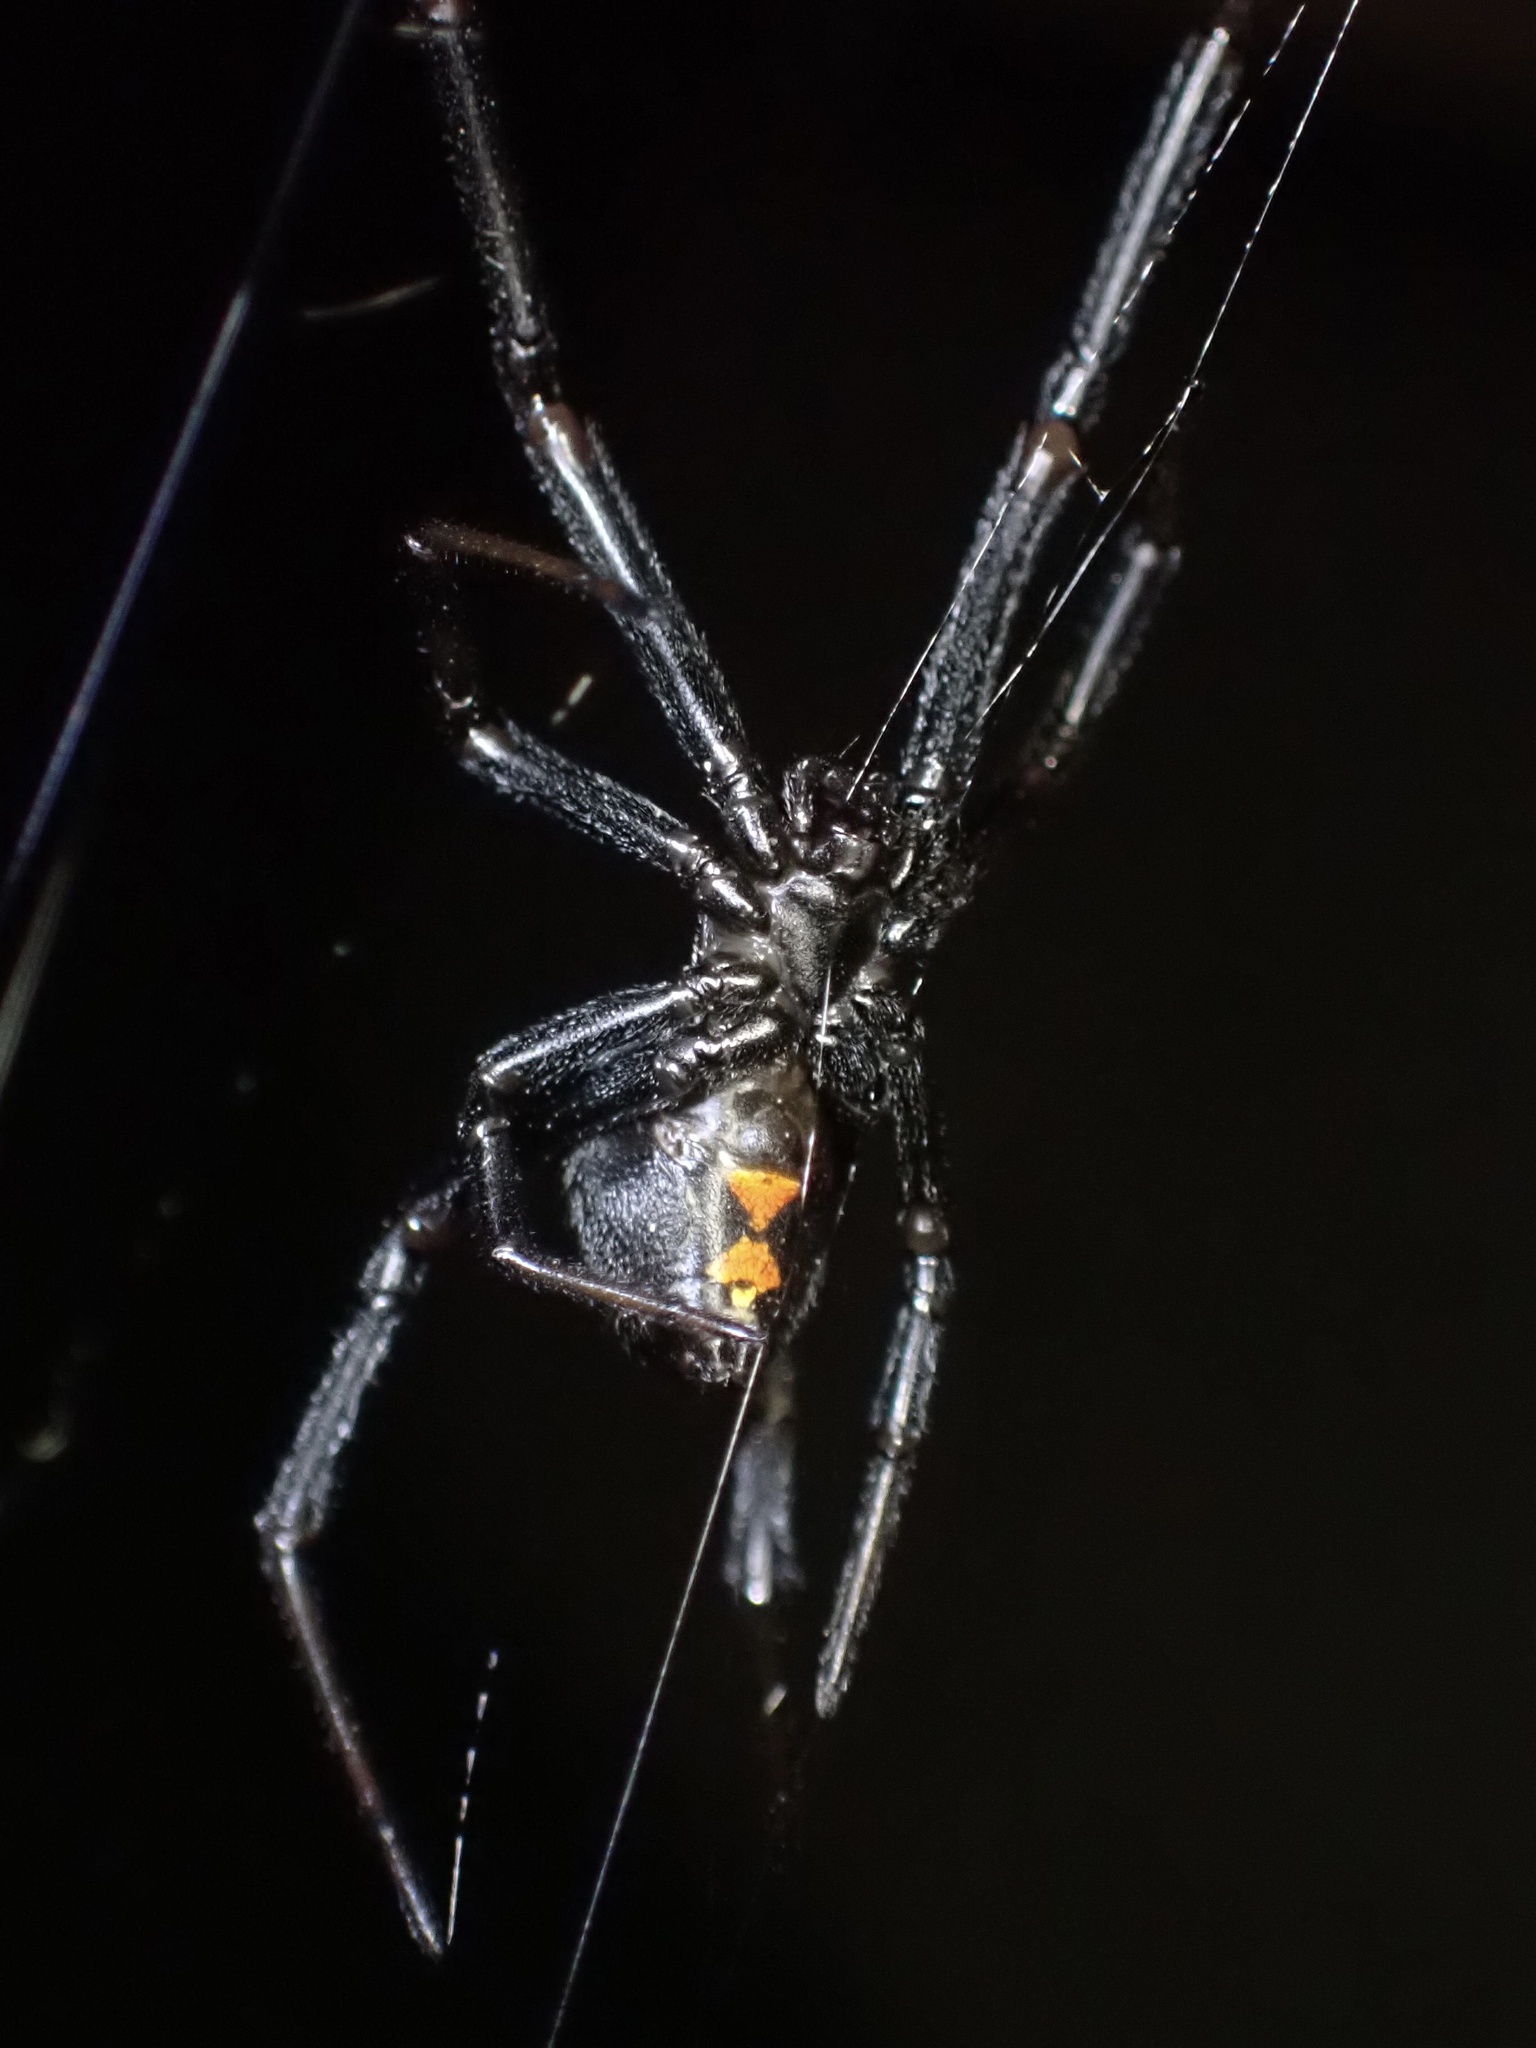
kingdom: Animalia
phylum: Arthropoda
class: Arachnida
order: Araneae
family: Theridiidae
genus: Latrodectus
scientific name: Latrodectus hesperus
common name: Western black widow
